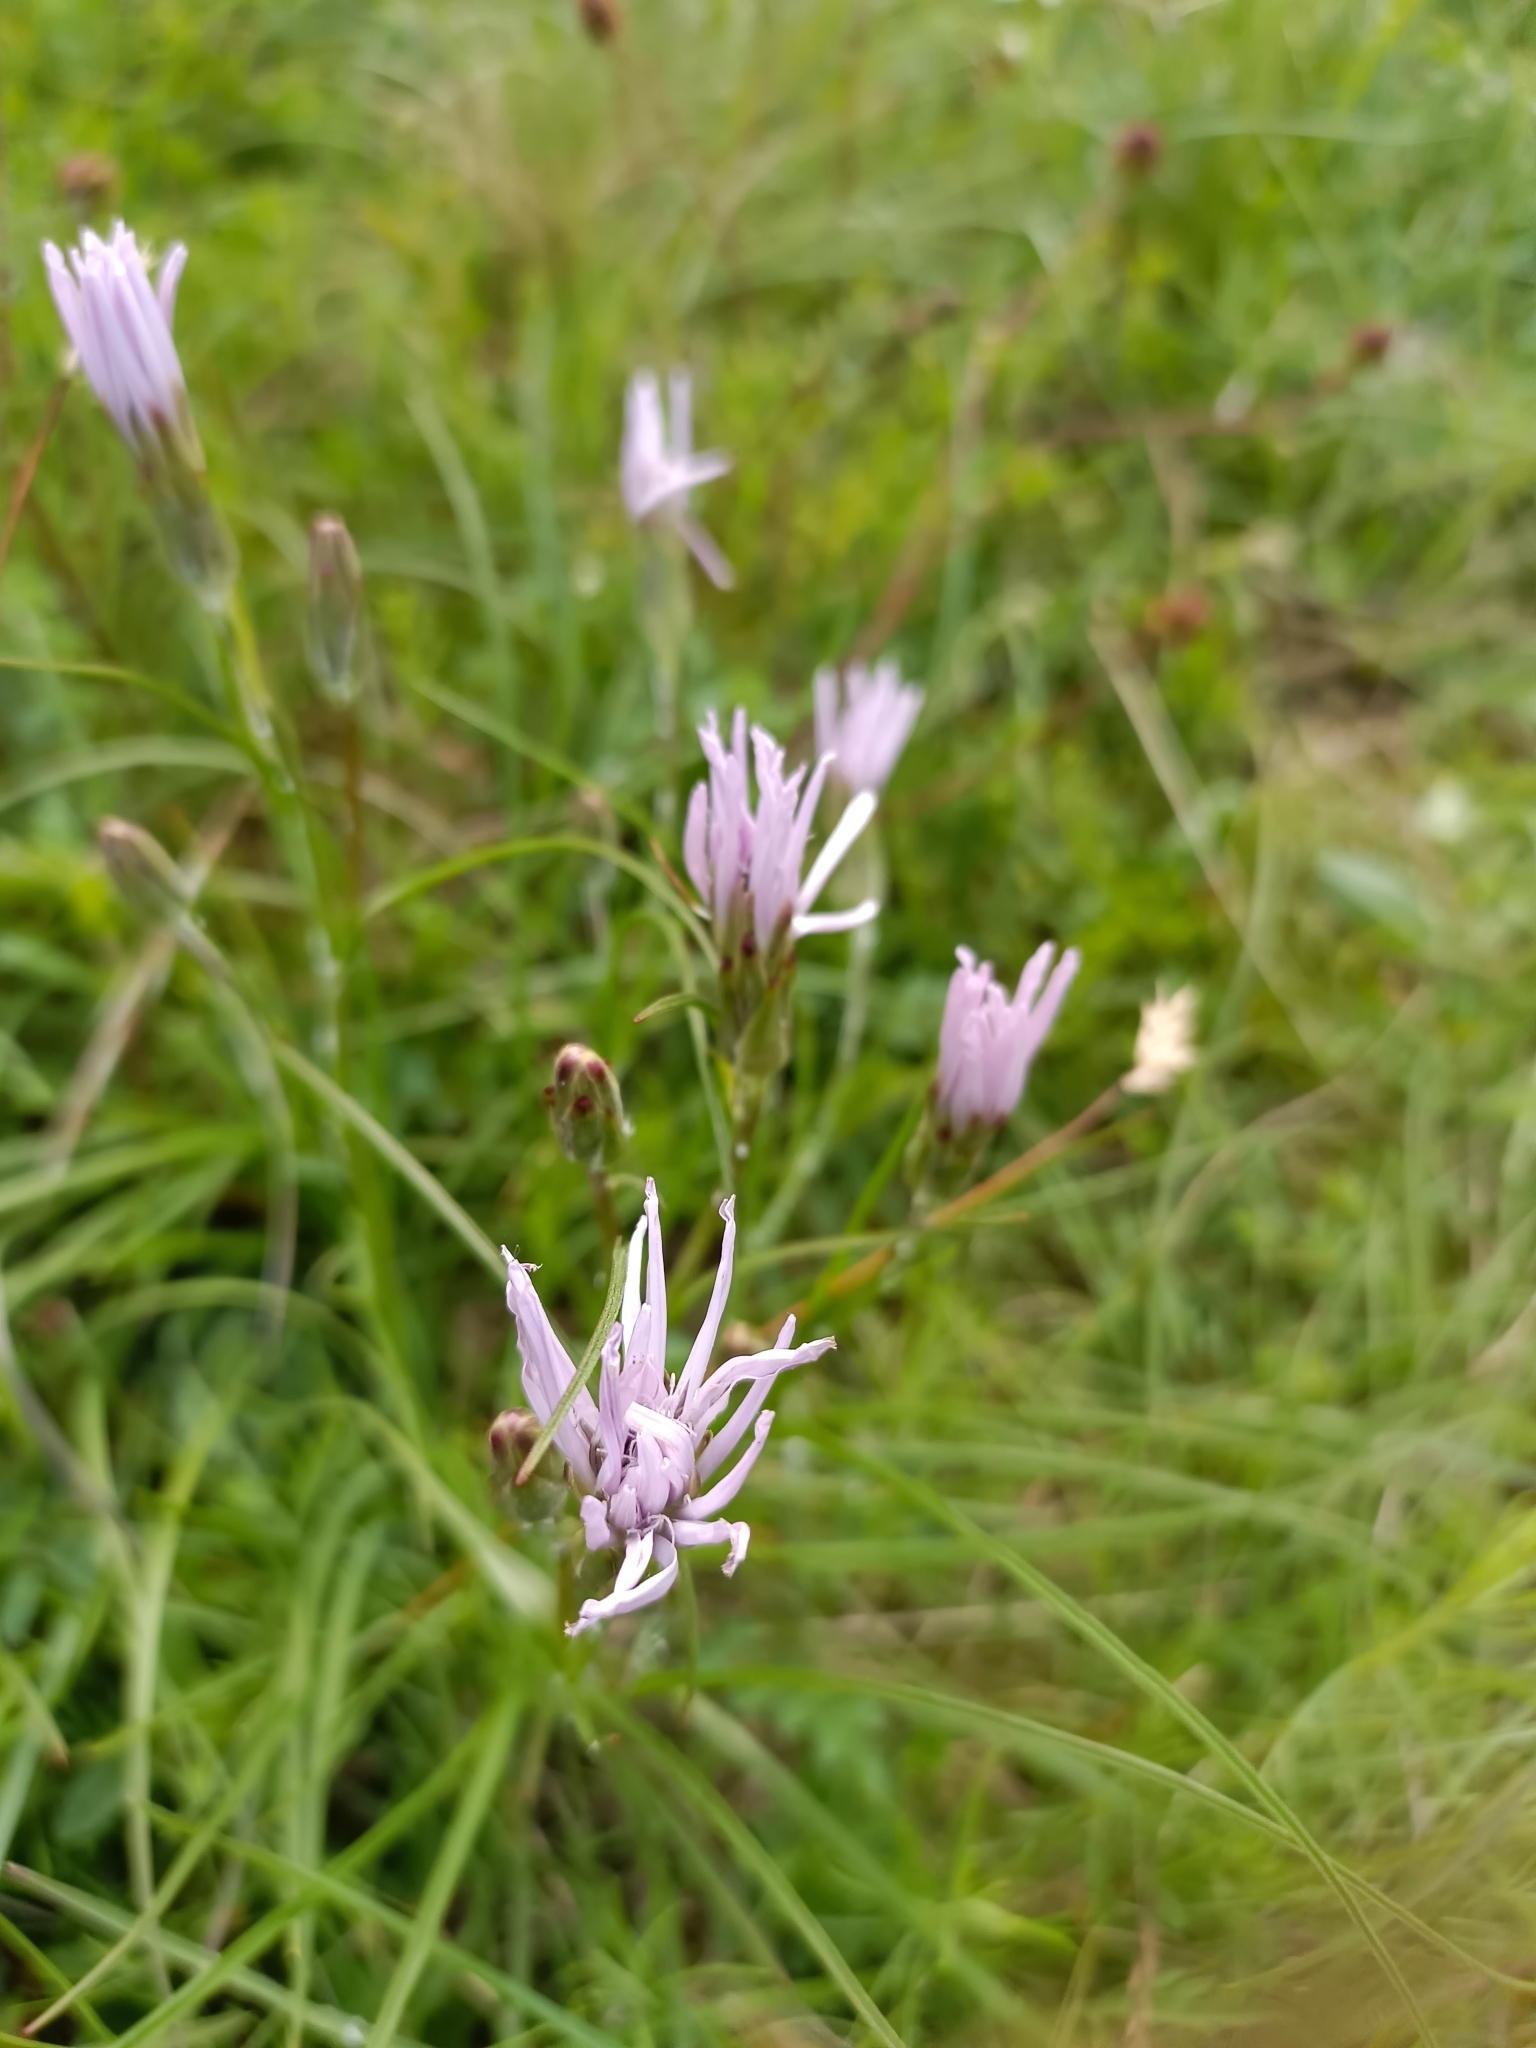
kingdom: Plantae
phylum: Tracheophyta
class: Magnoliopsida
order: Asterales
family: Asteraceae
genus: Scorzonera
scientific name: Scorzonera purpurea
